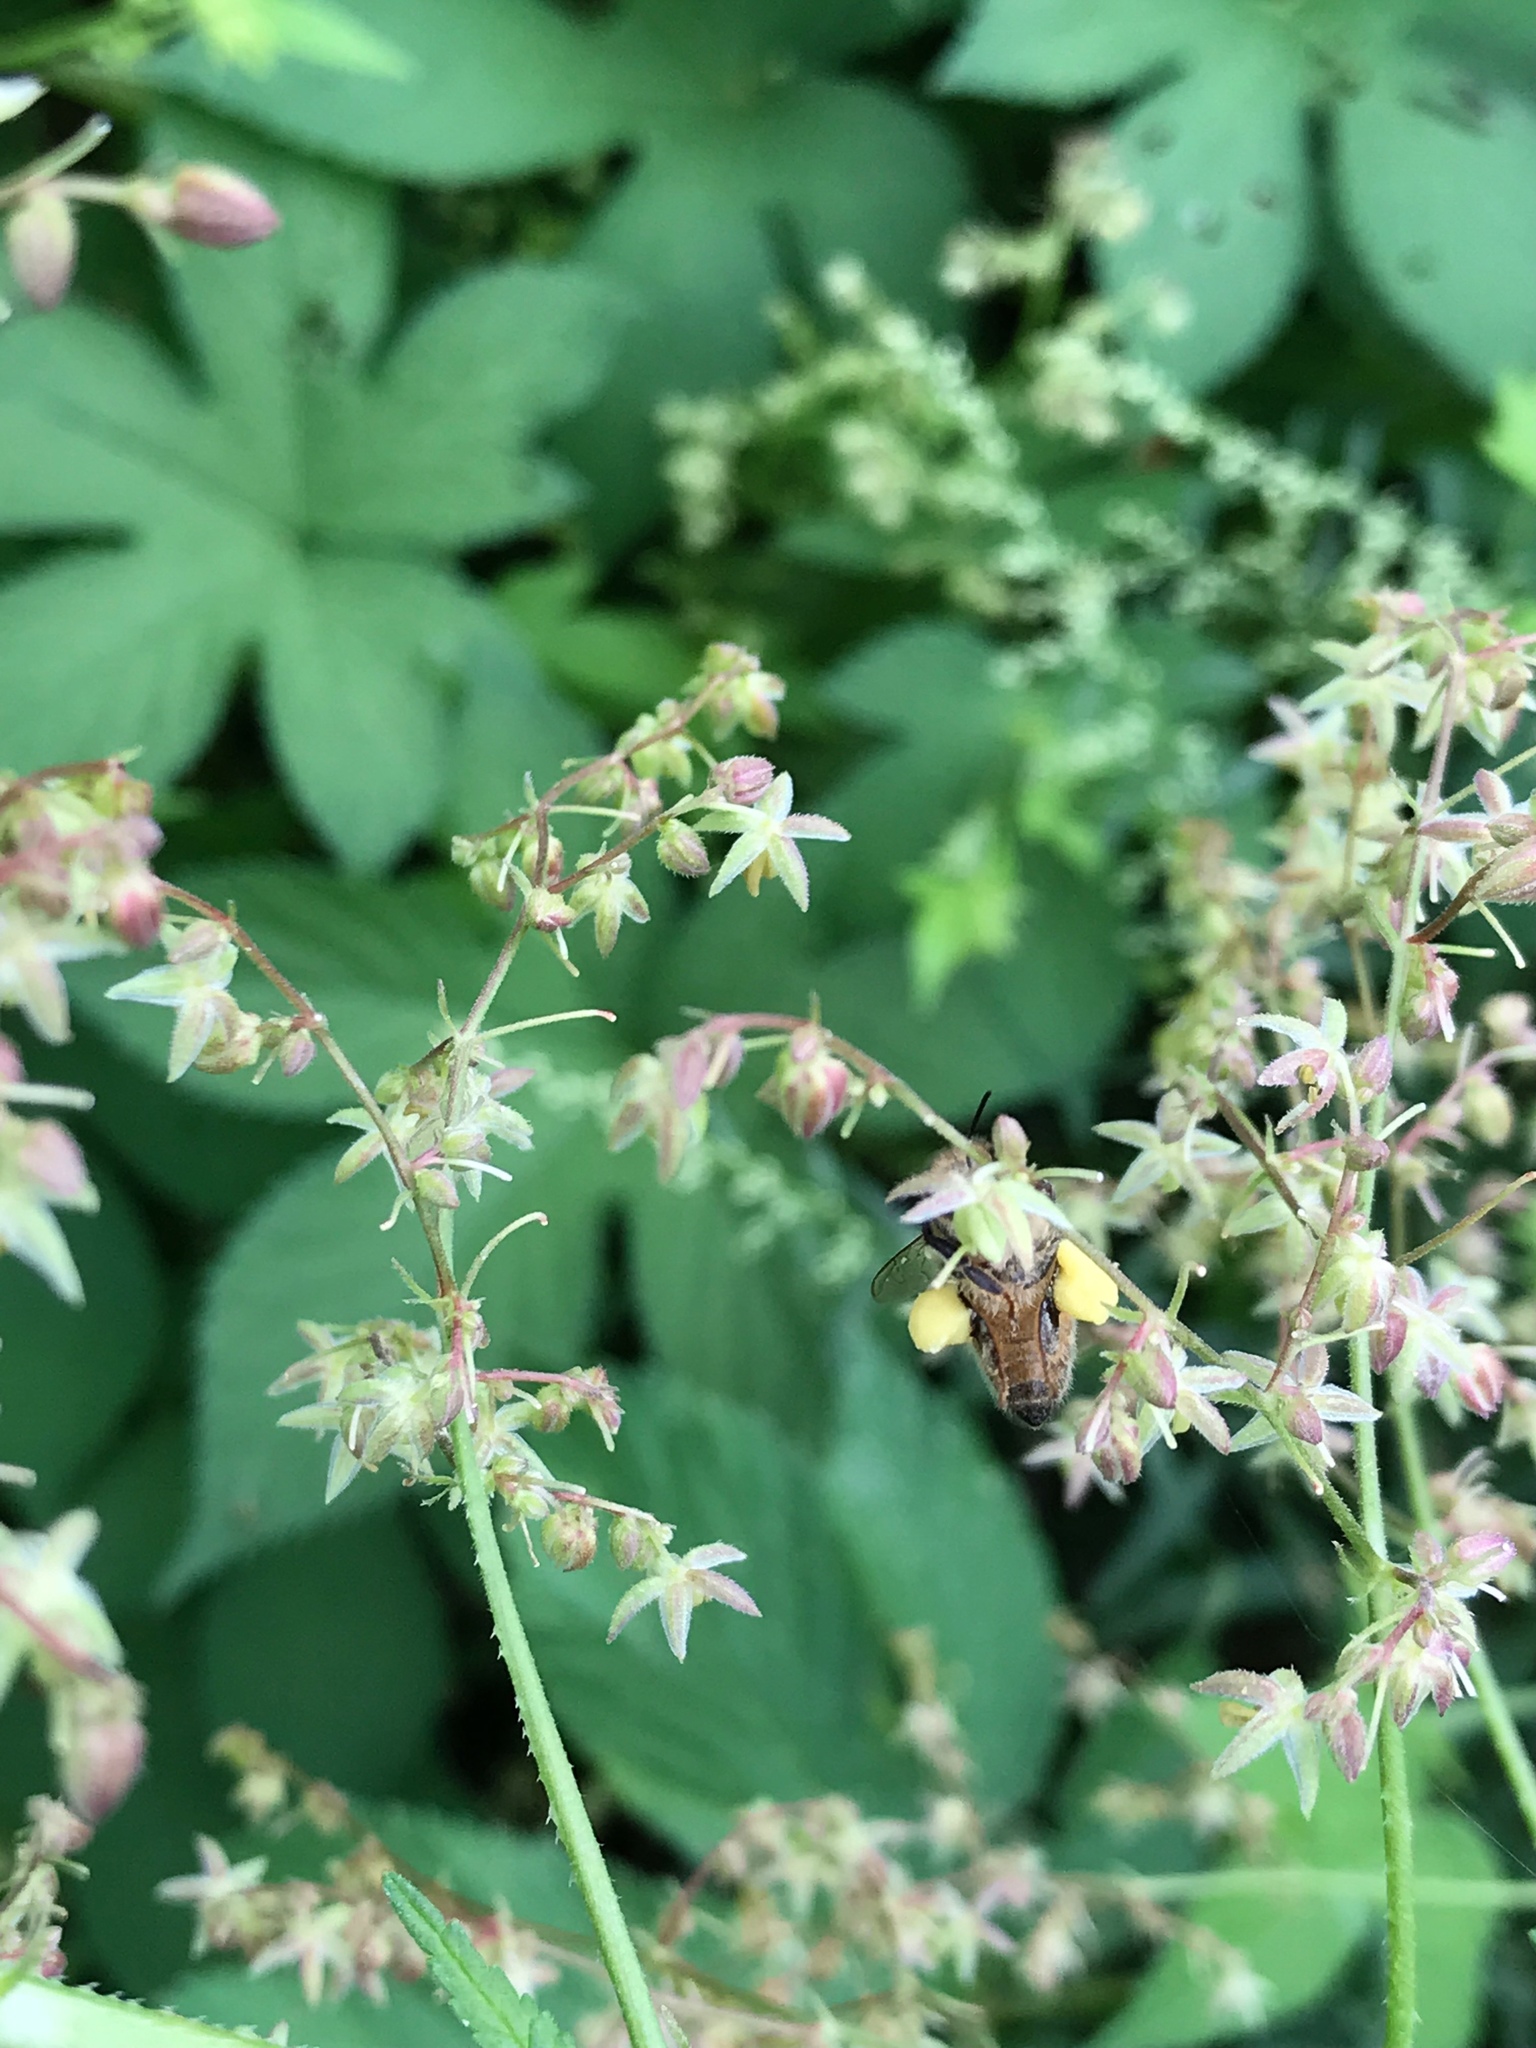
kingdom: Animalia
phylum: Arthropoda
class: Insecta
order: Hymenoptera
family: Apidae
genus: Apis
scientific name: Apis mellifera
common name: Honey bee
